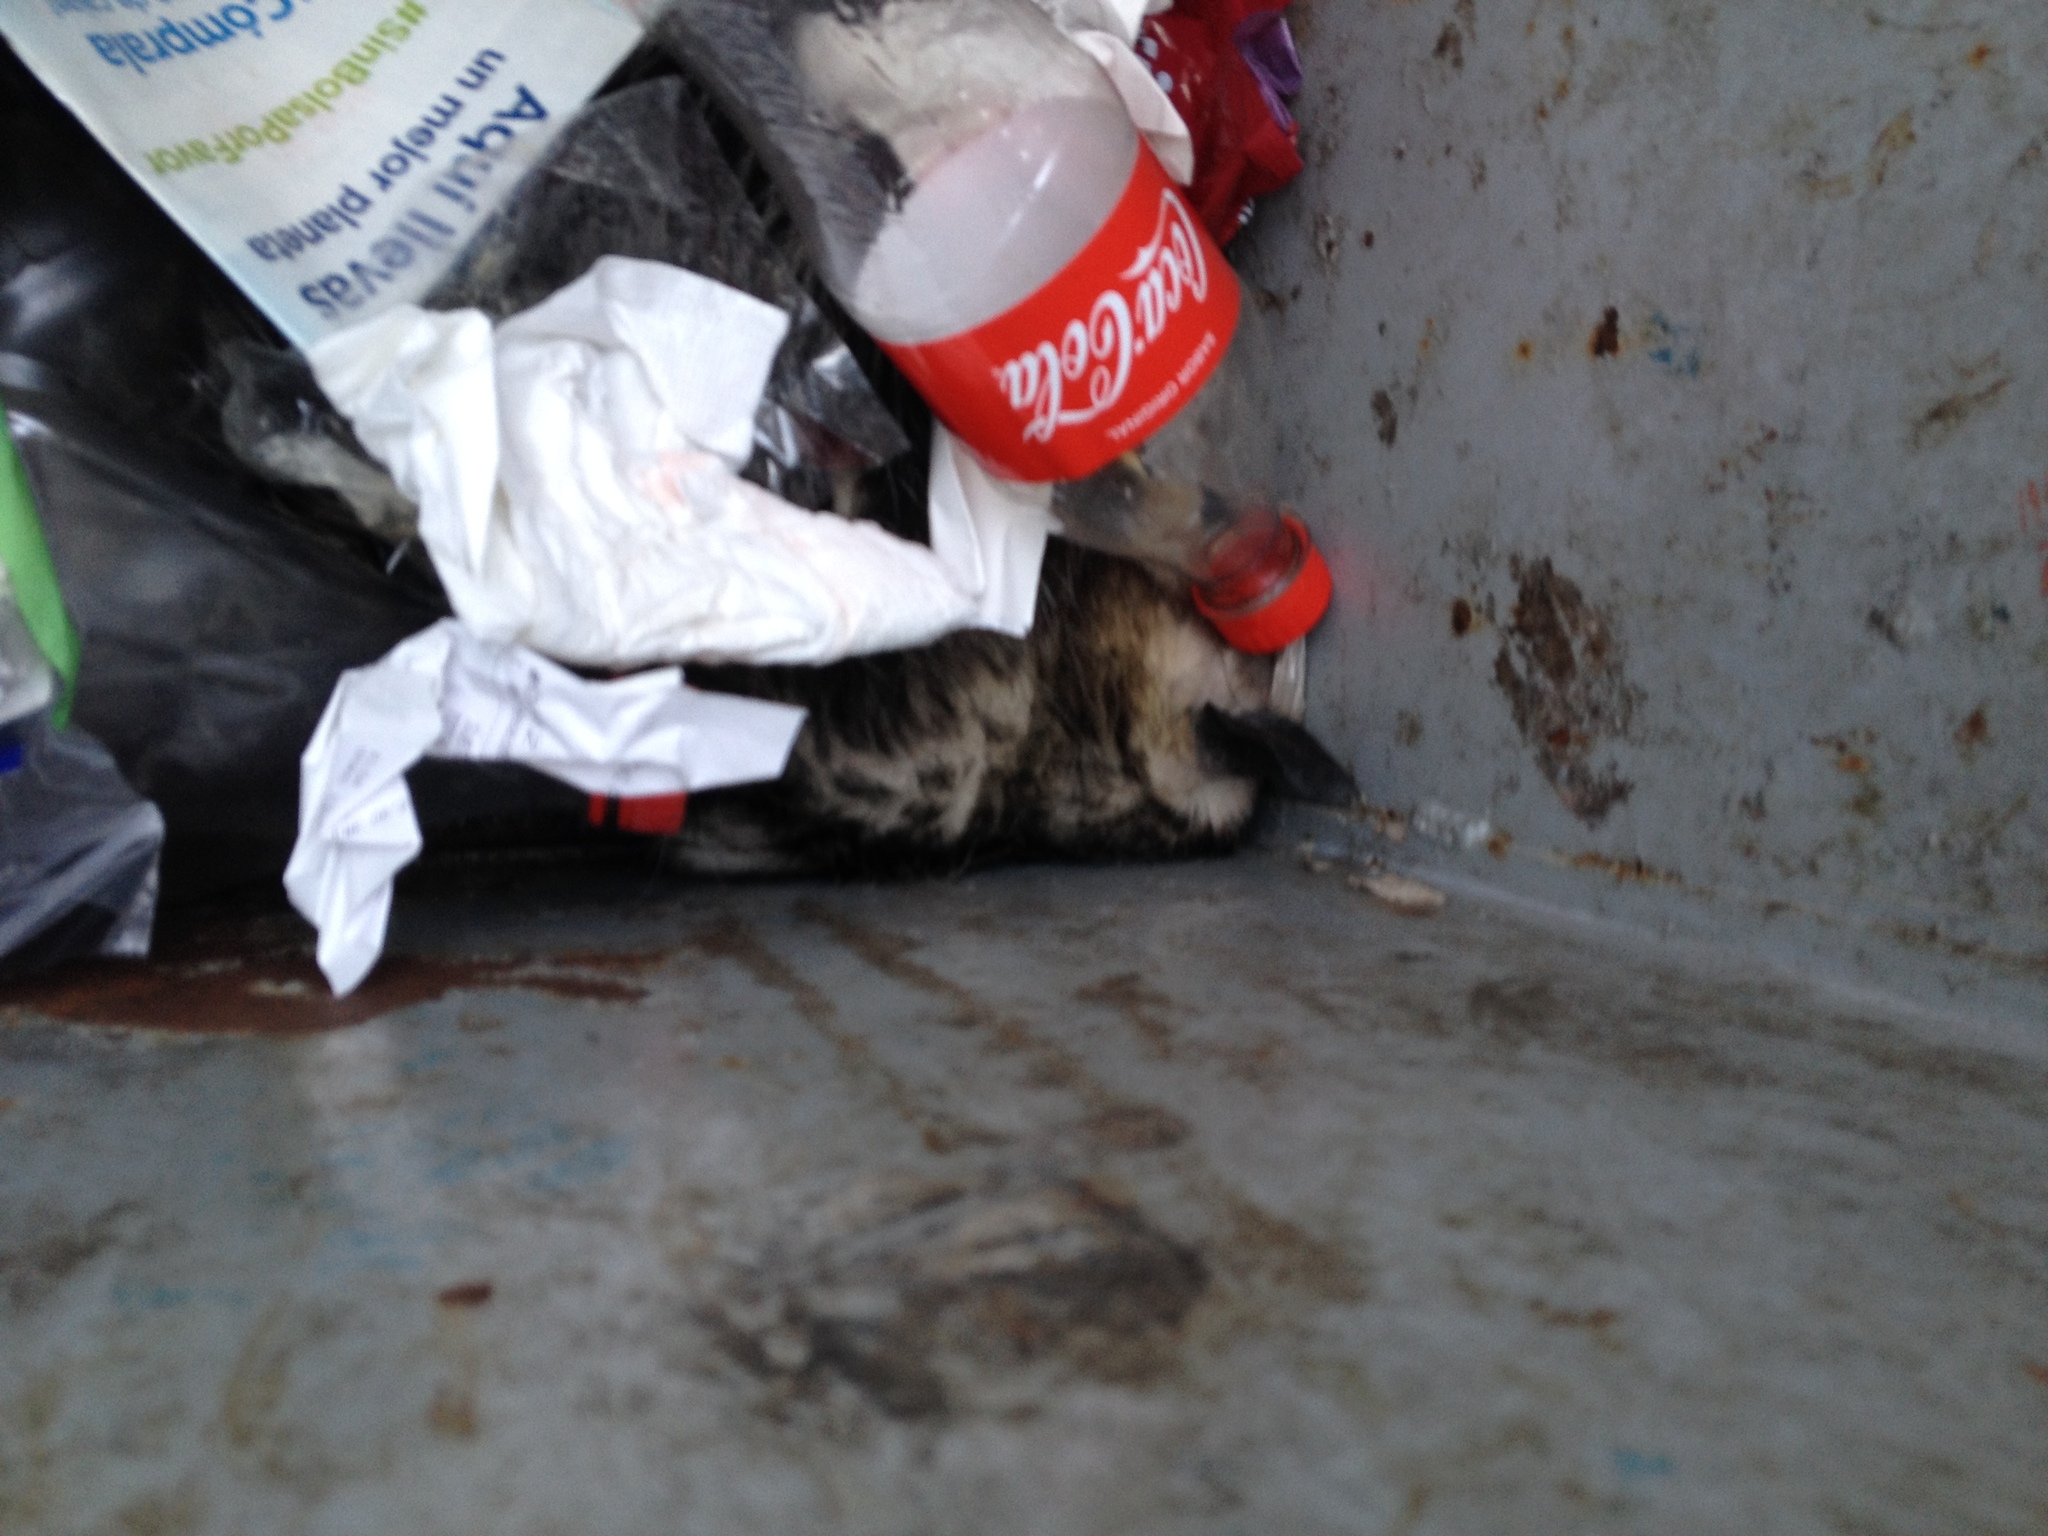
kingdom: Animalia
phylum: Chordata
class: Mammalia
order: Didelphimorphia
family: Didelphidae
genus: Didelphis
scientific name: Didelphis virginiana
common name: Virginia opossum
